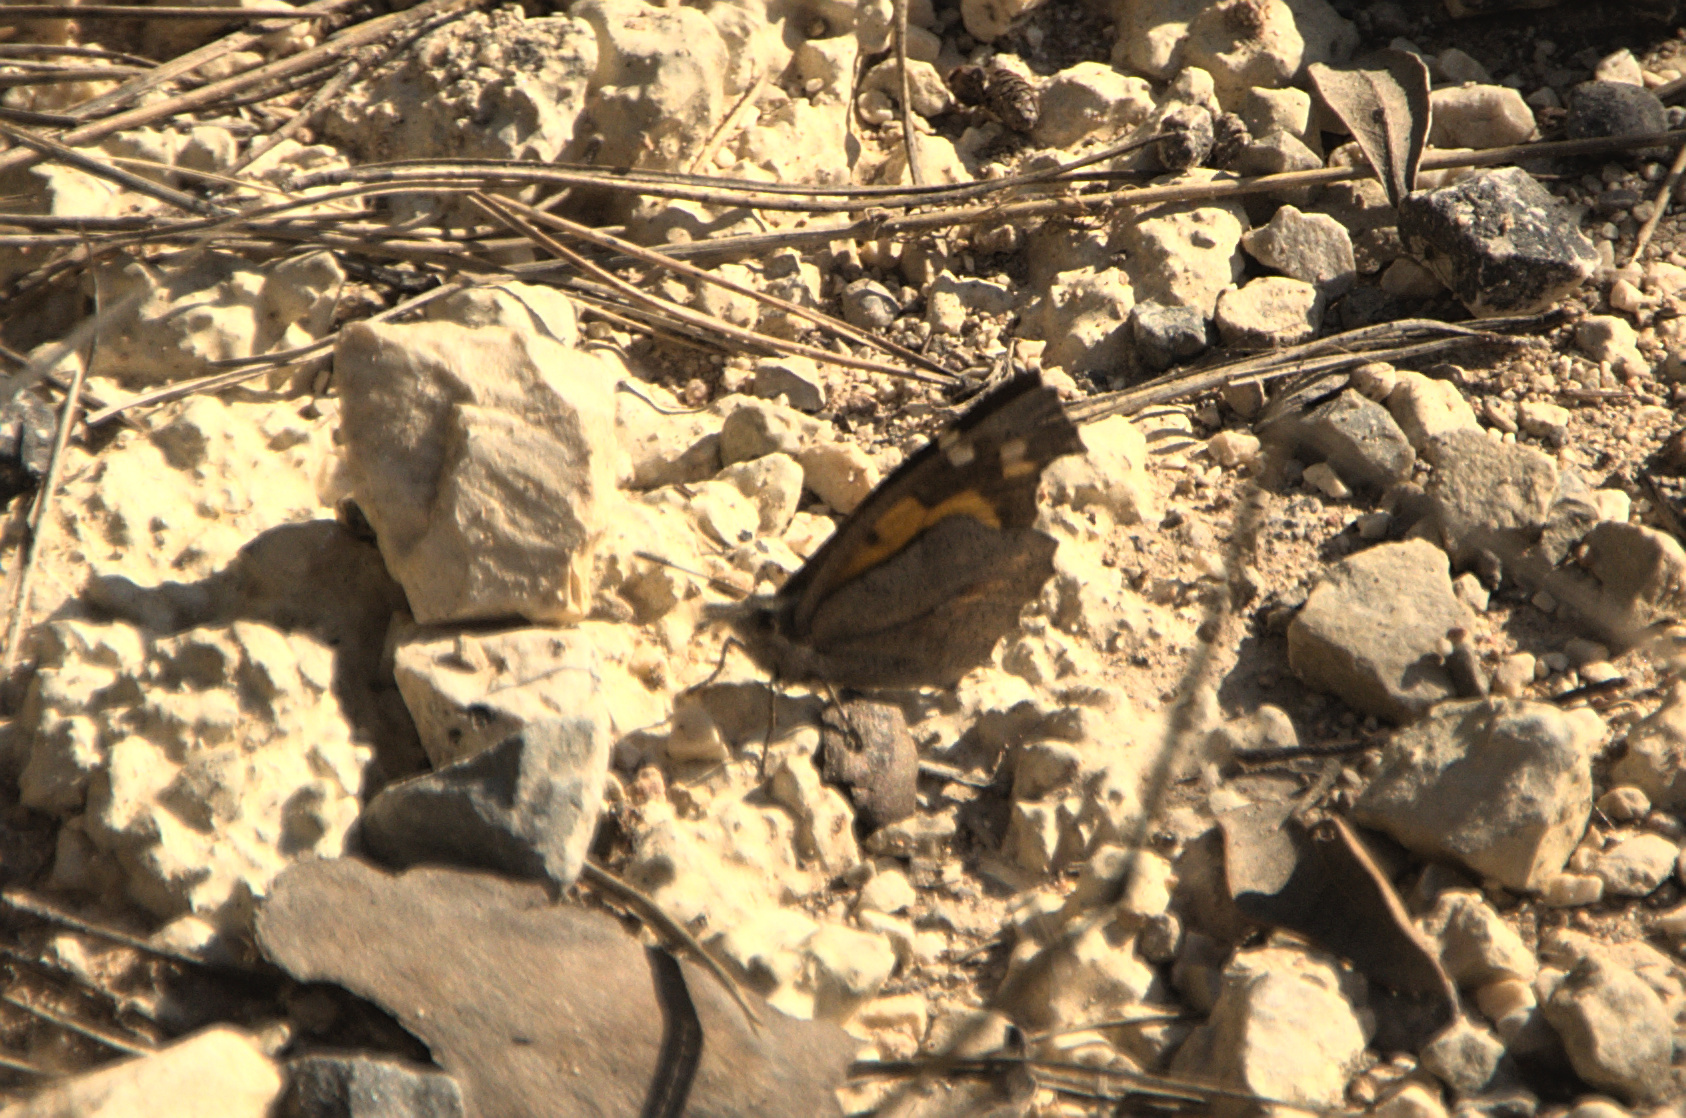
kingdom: Animalia
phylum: Arthropoda
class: Insecta
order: Lepidoptera
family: Nymphalidae
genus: Libythea
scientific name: Libythea celtis
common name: Nettle-tree butterfly
